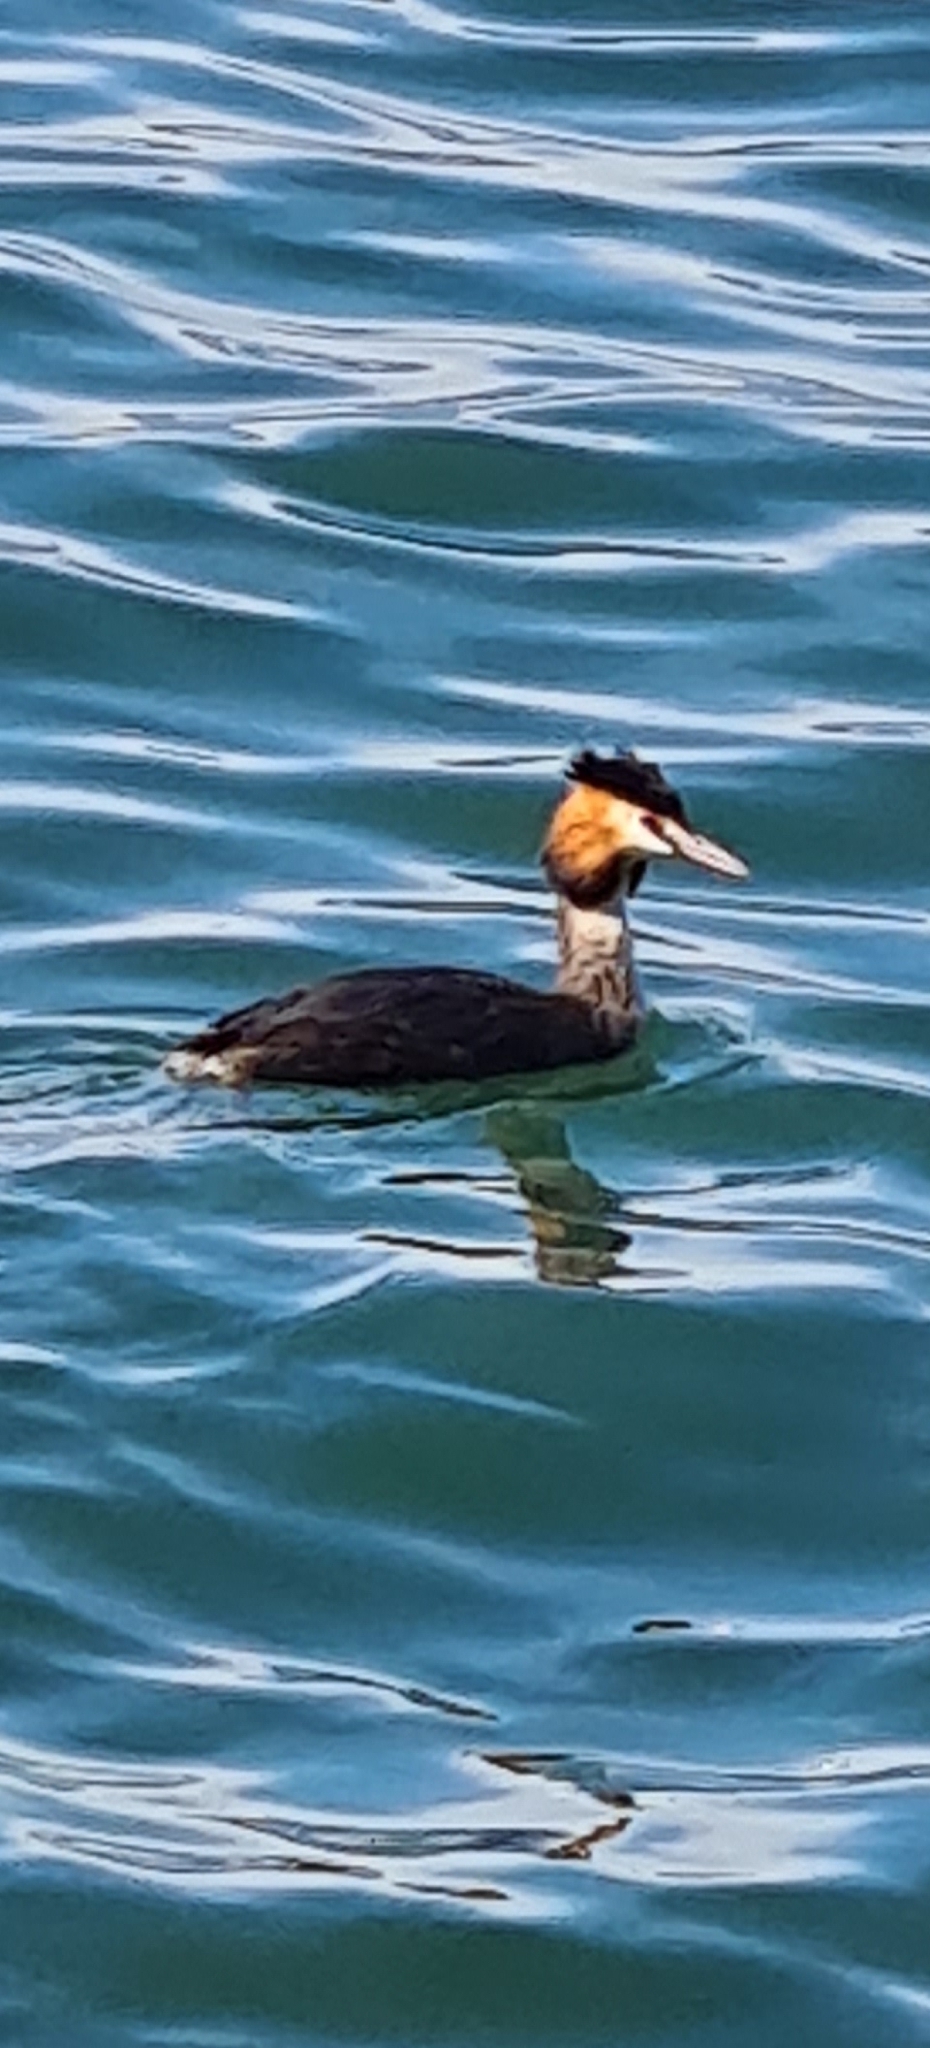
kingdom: Animalia
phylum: Chordata
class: Aves
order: Podicipediformes
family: Podicipedidae
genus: Podiceps
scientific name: Podiceps cristatus
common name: Great crested grebe
